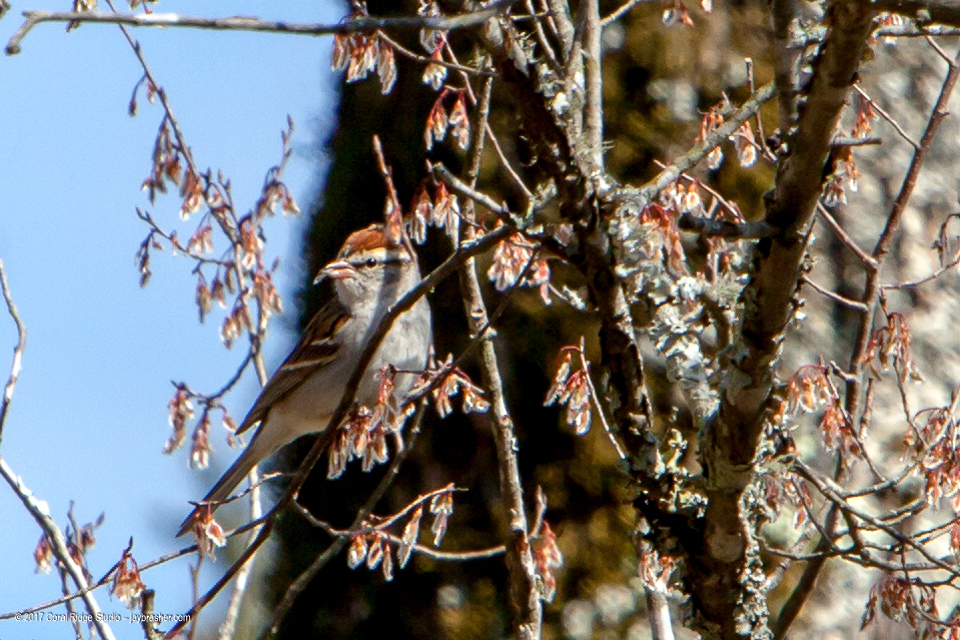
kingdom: Animalia
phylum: Chordata
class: Aves
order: Passeriformes
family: Passerellidae
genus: Spizella
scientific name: Spizella passerina
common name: Chipping sparrow
